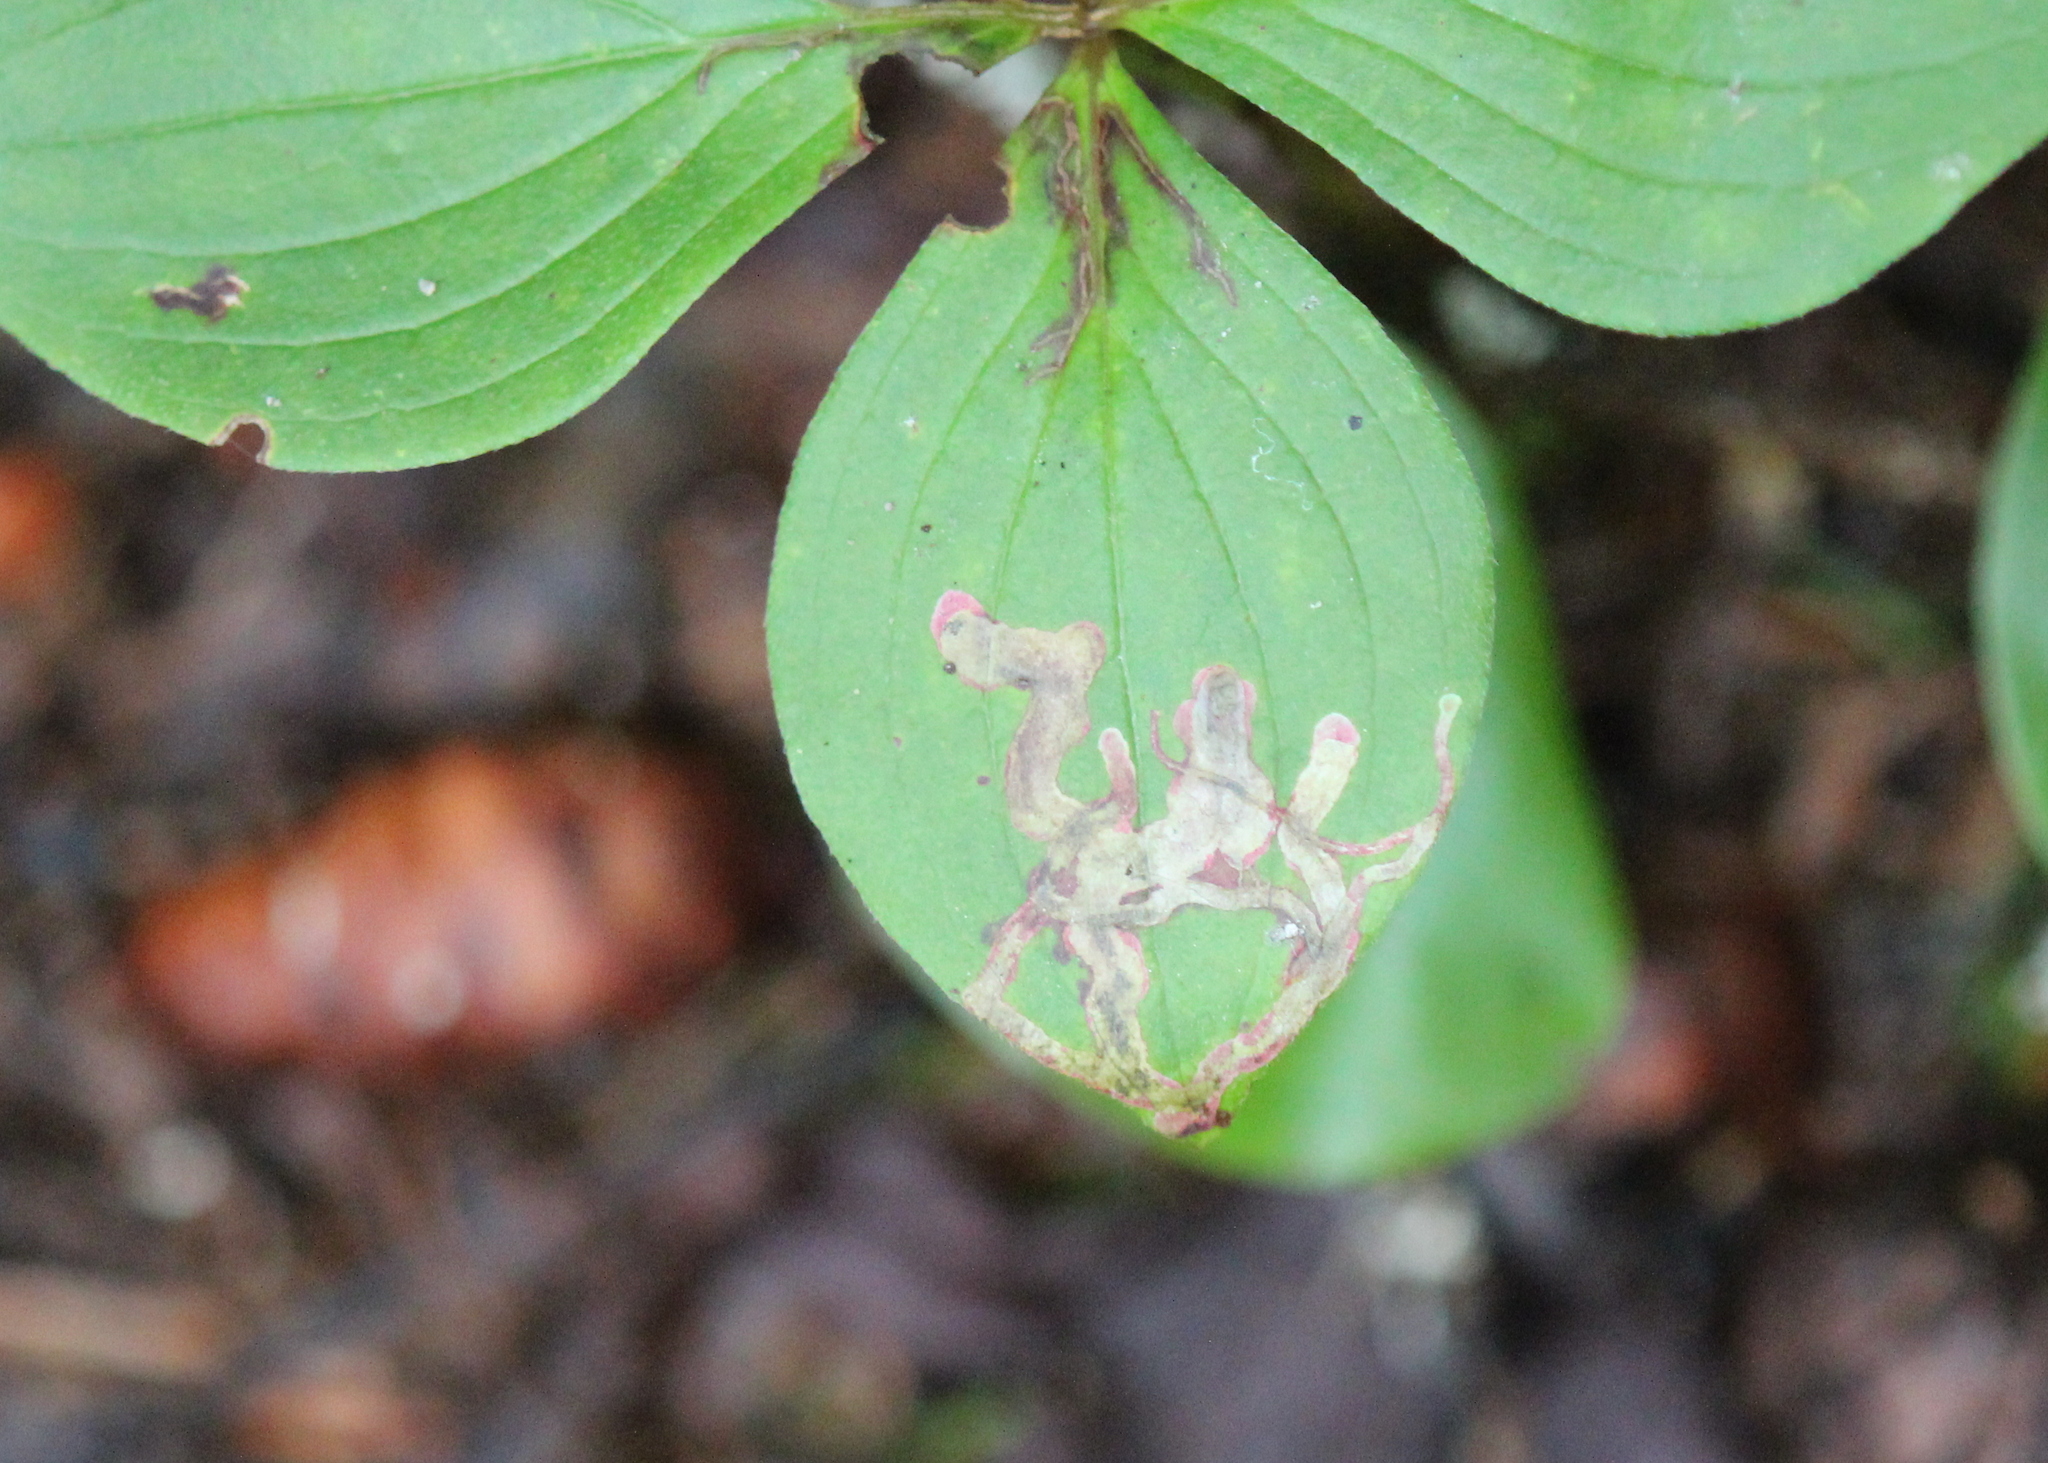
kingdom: Animalia
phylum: Arthropoda
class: Insecta
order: Diptera
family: Agromyzidae
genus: Phytomyza
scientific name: Phytomyza agromyzina
